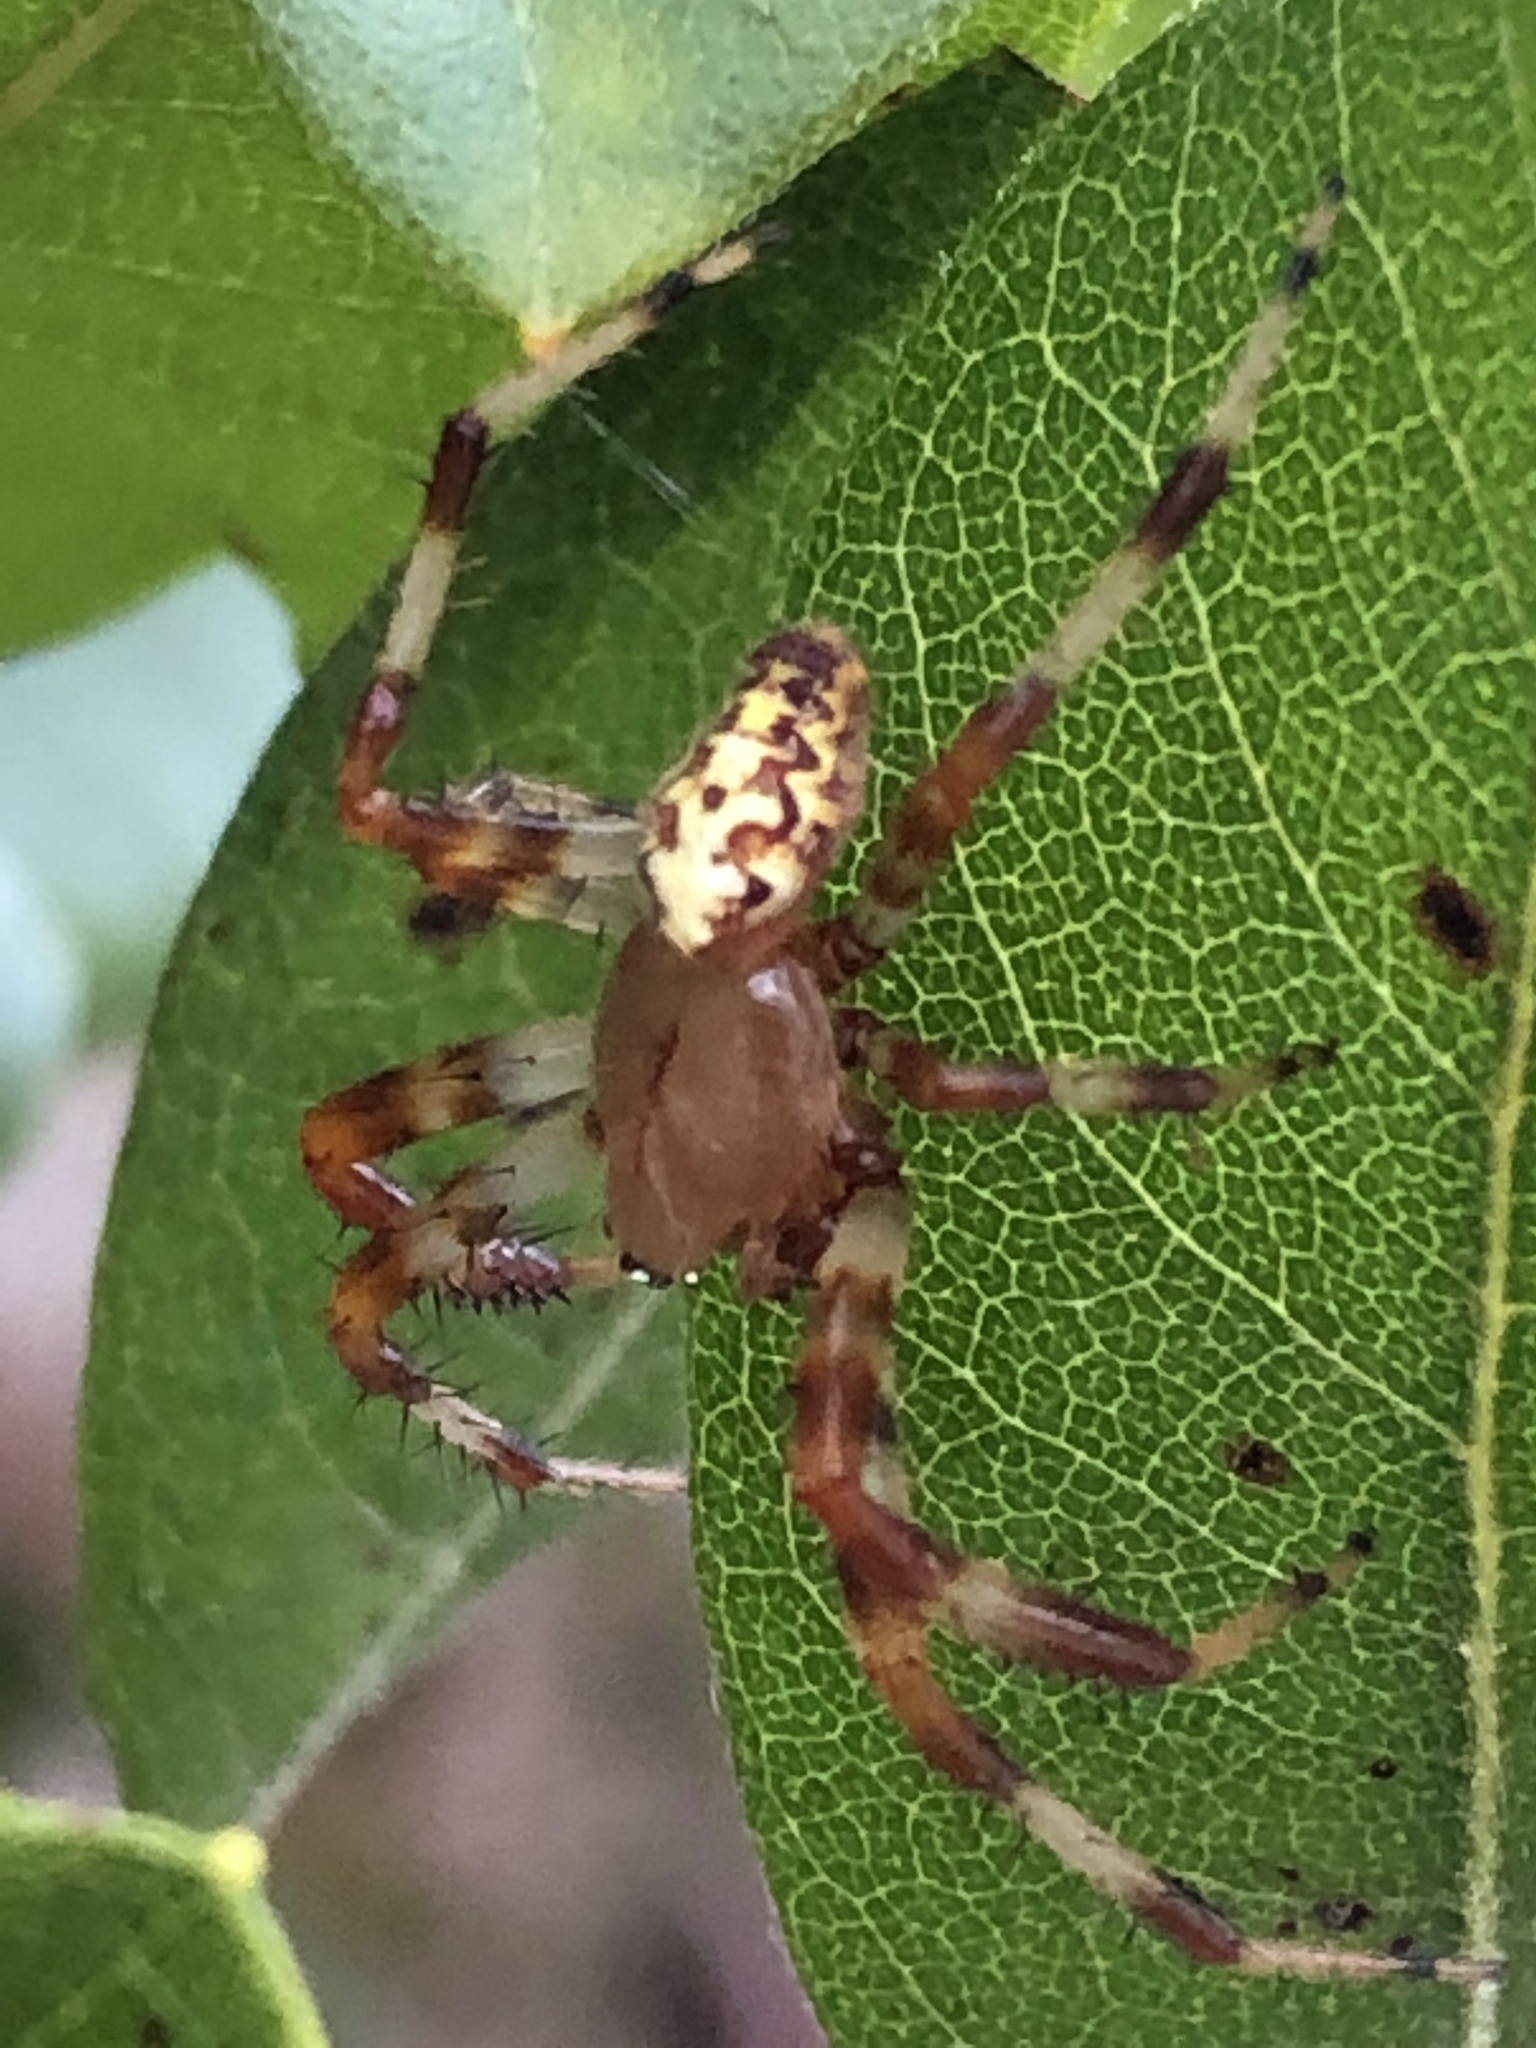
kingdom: Animalia
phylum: Arthropoda
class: Arachnida
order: Araneae
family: Araneidae
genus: Araneus
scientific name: Araneus marmoreus
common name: Marbled orbweaver
